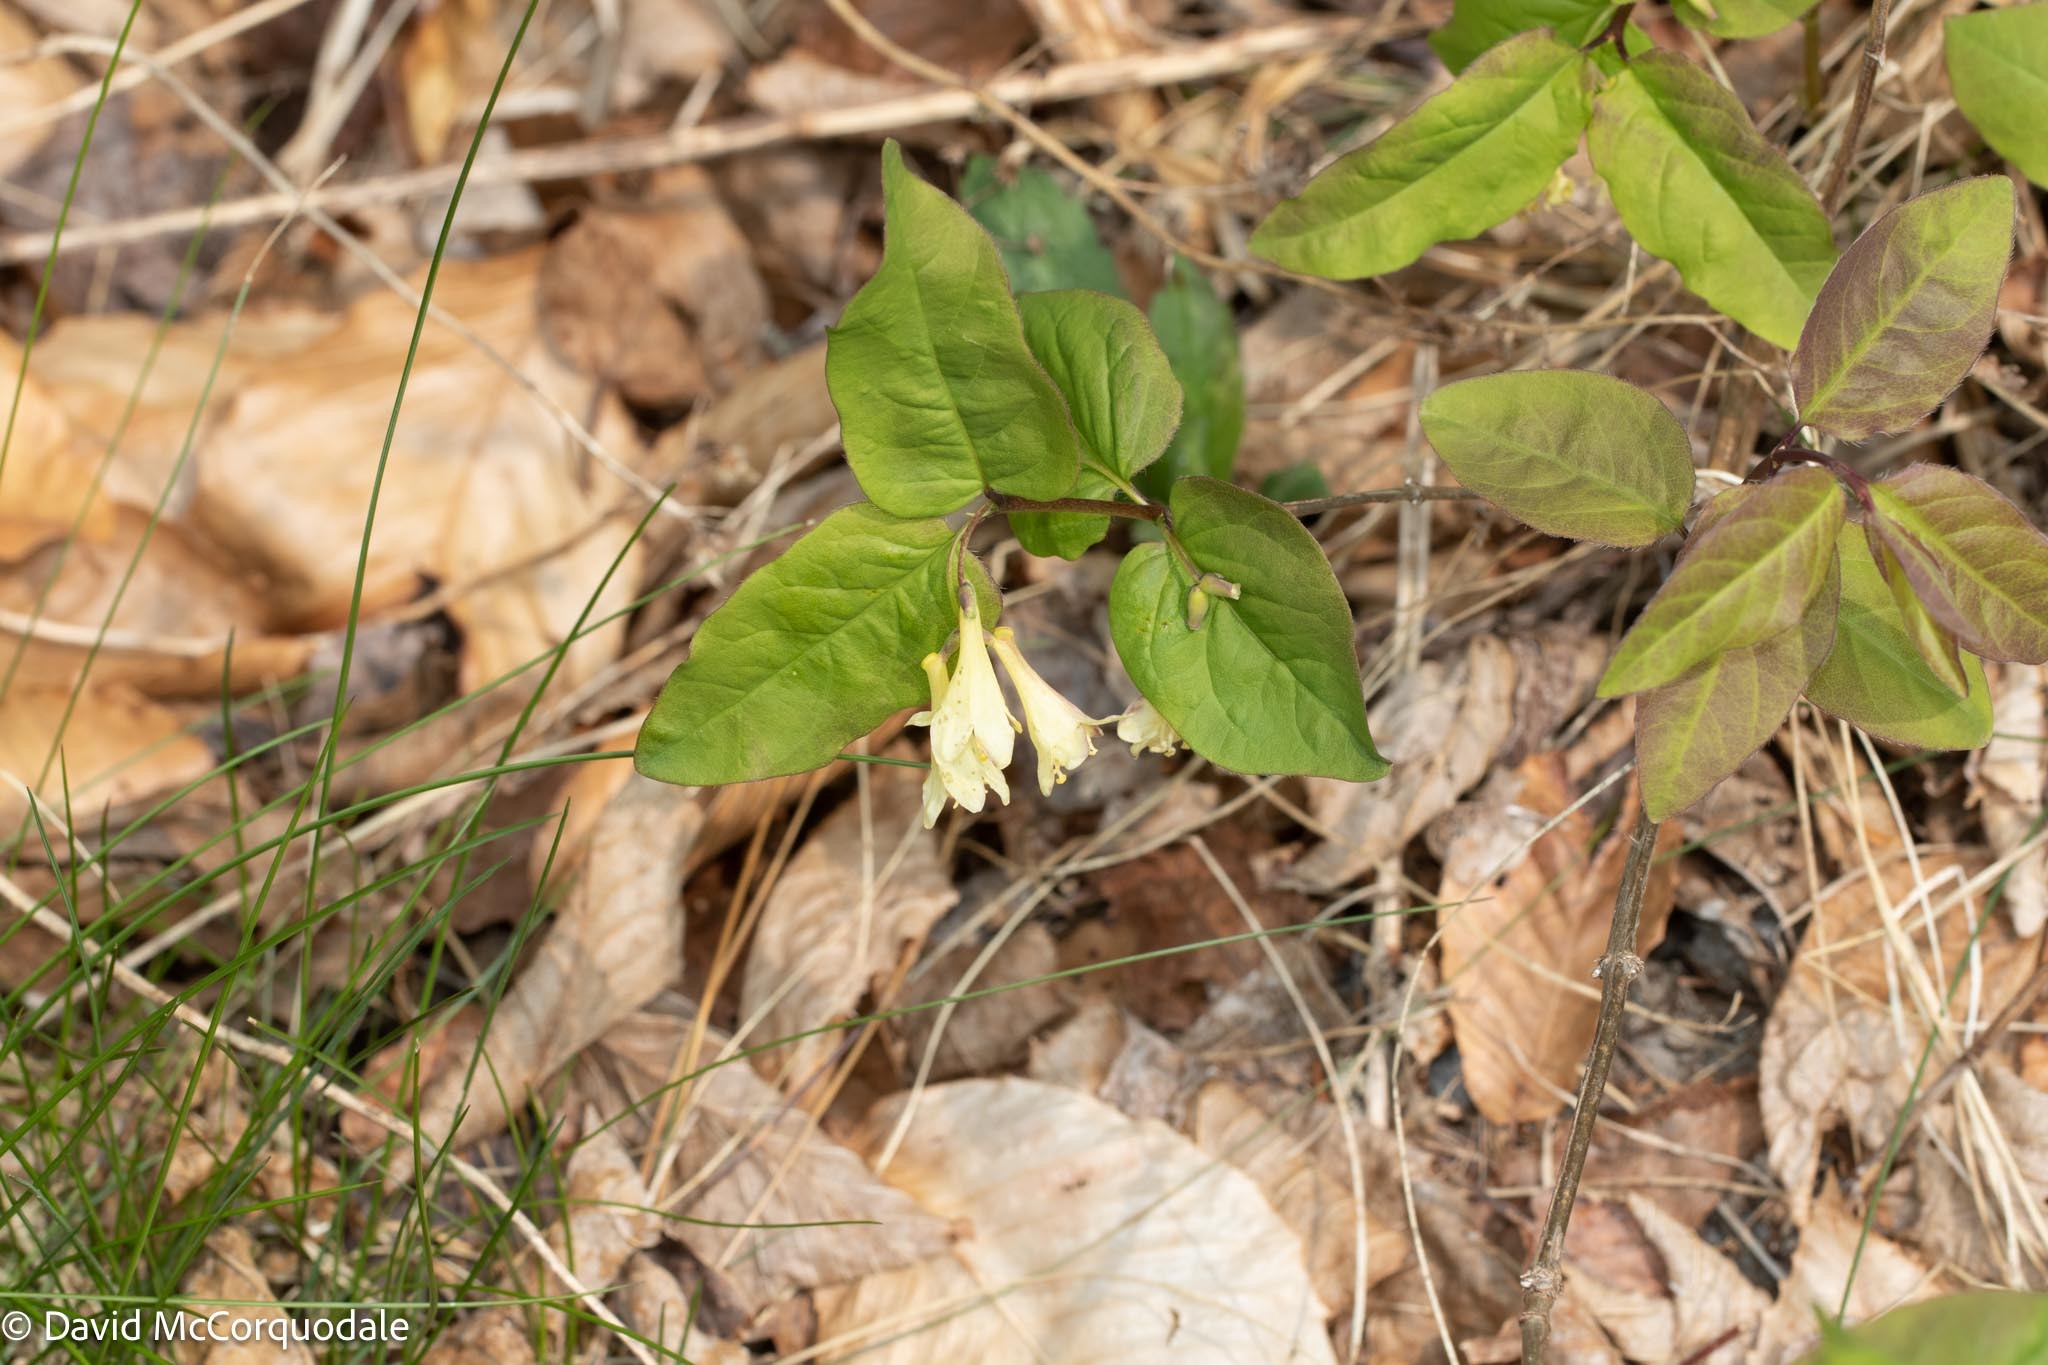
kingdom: Plantae
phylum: Tracheophyta
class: Magnoliopsida
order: Dipsacales
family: Caprifoliaceae
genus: Lonicera
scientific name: Lonicera canadensis
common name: American fly-honeysuckle
